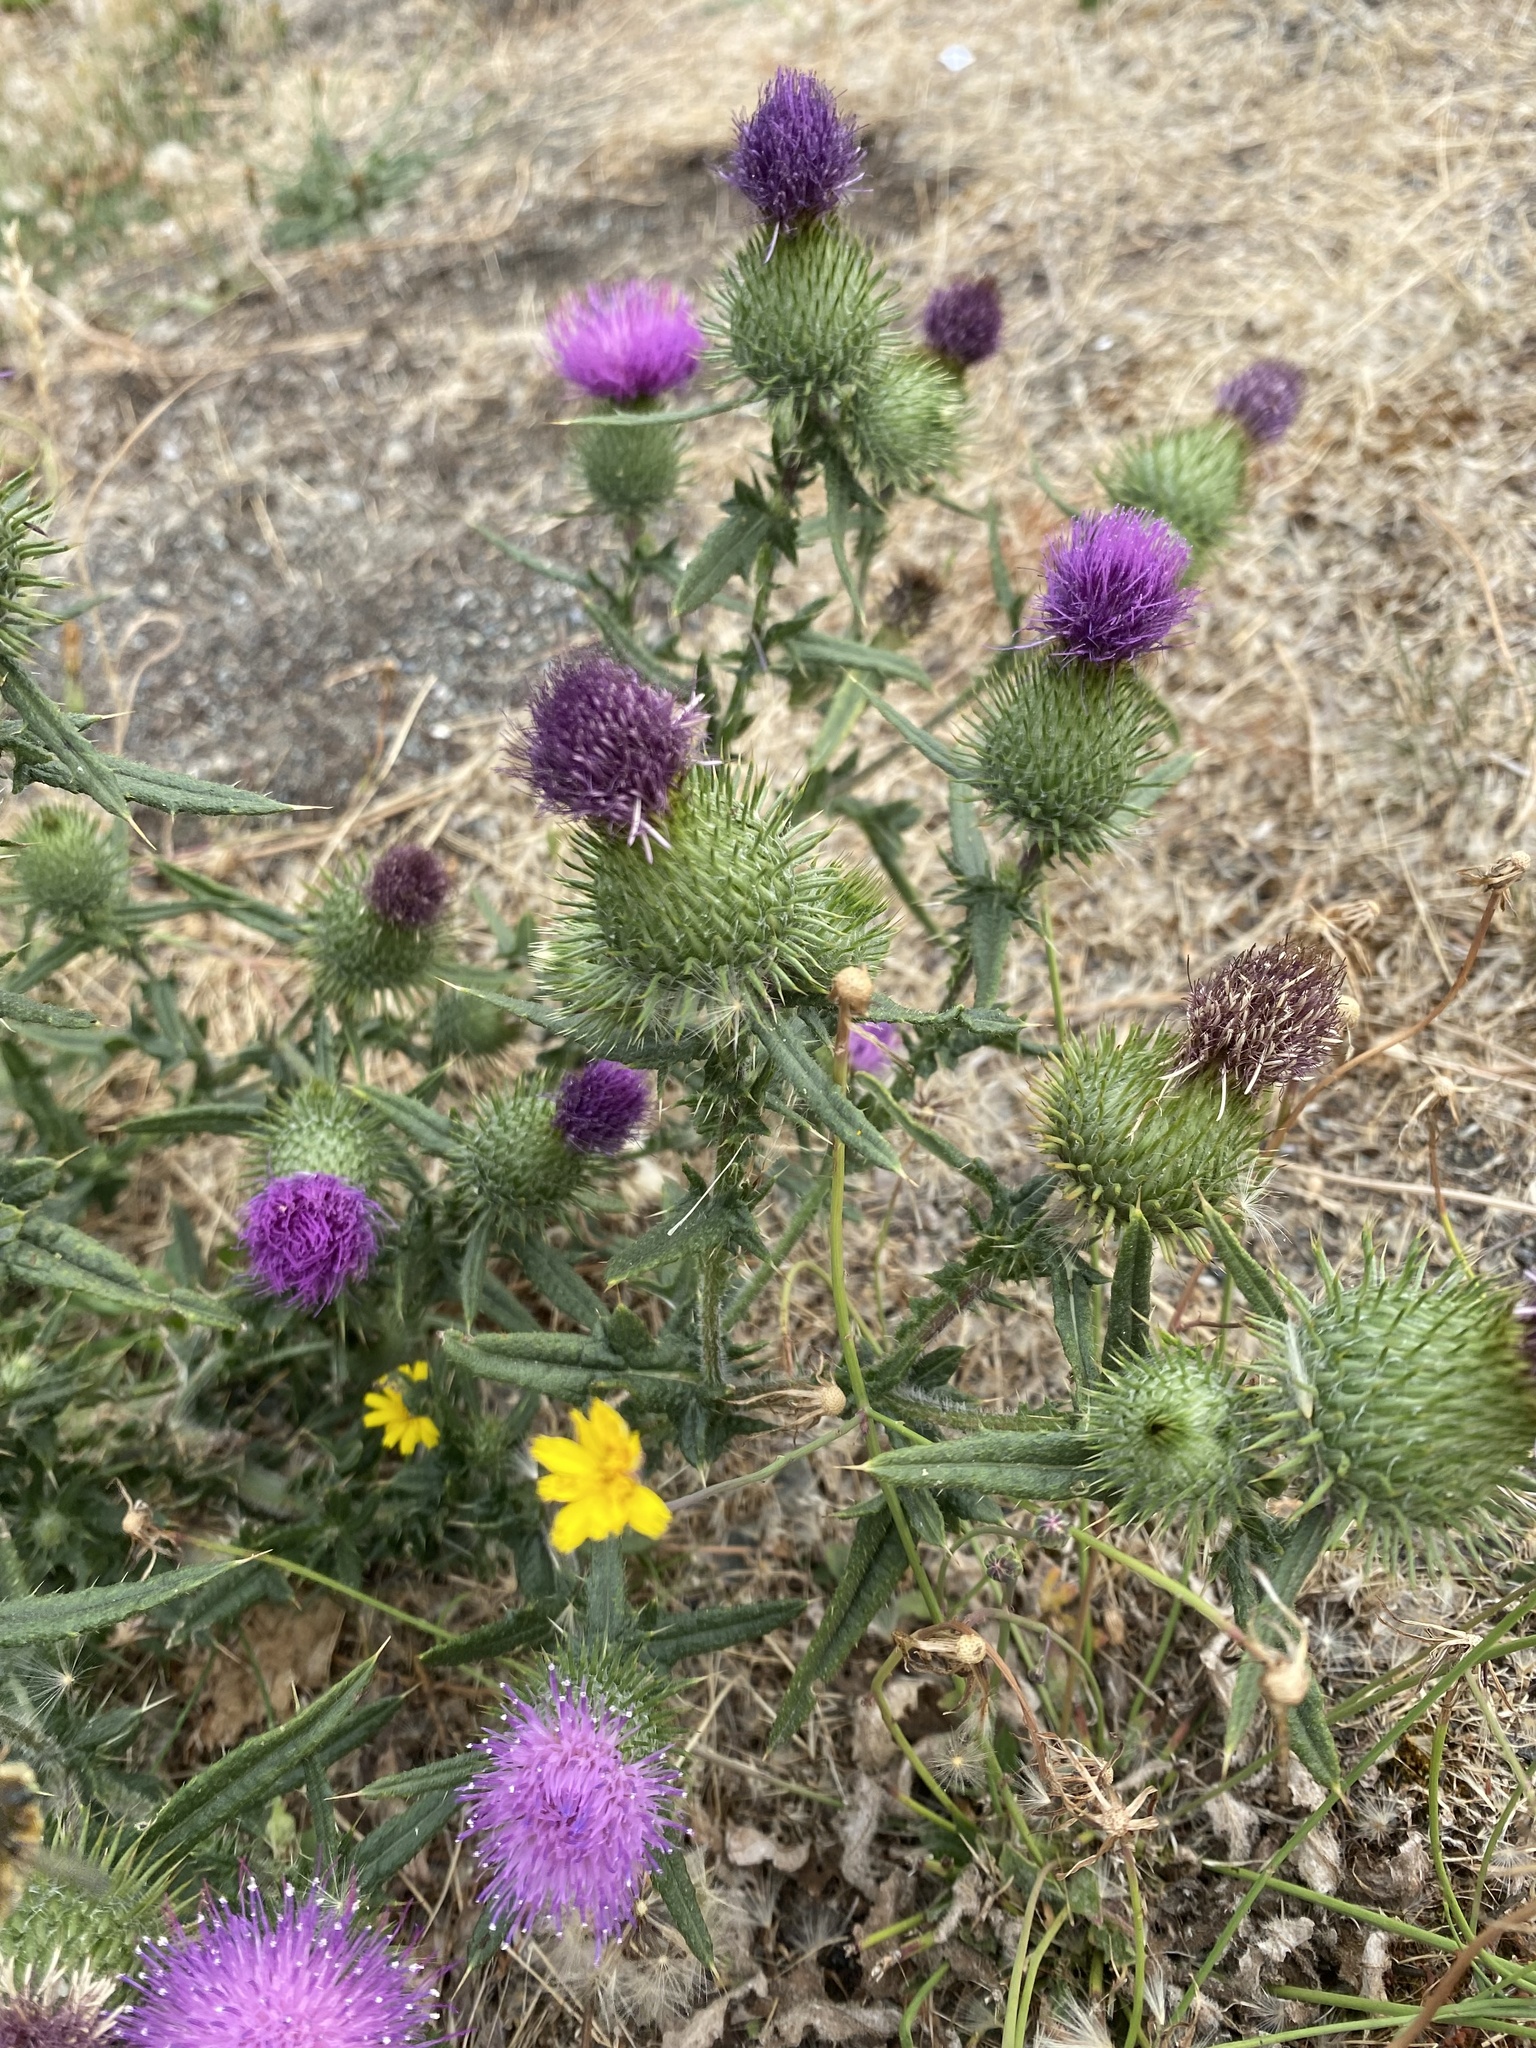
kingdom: Plantae
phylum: Tracheophyta
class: Magnoliopsida
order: Asterales
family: Asteraceae
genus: Cirsium
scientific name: Cirsium vulgare
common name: Bull thistle
